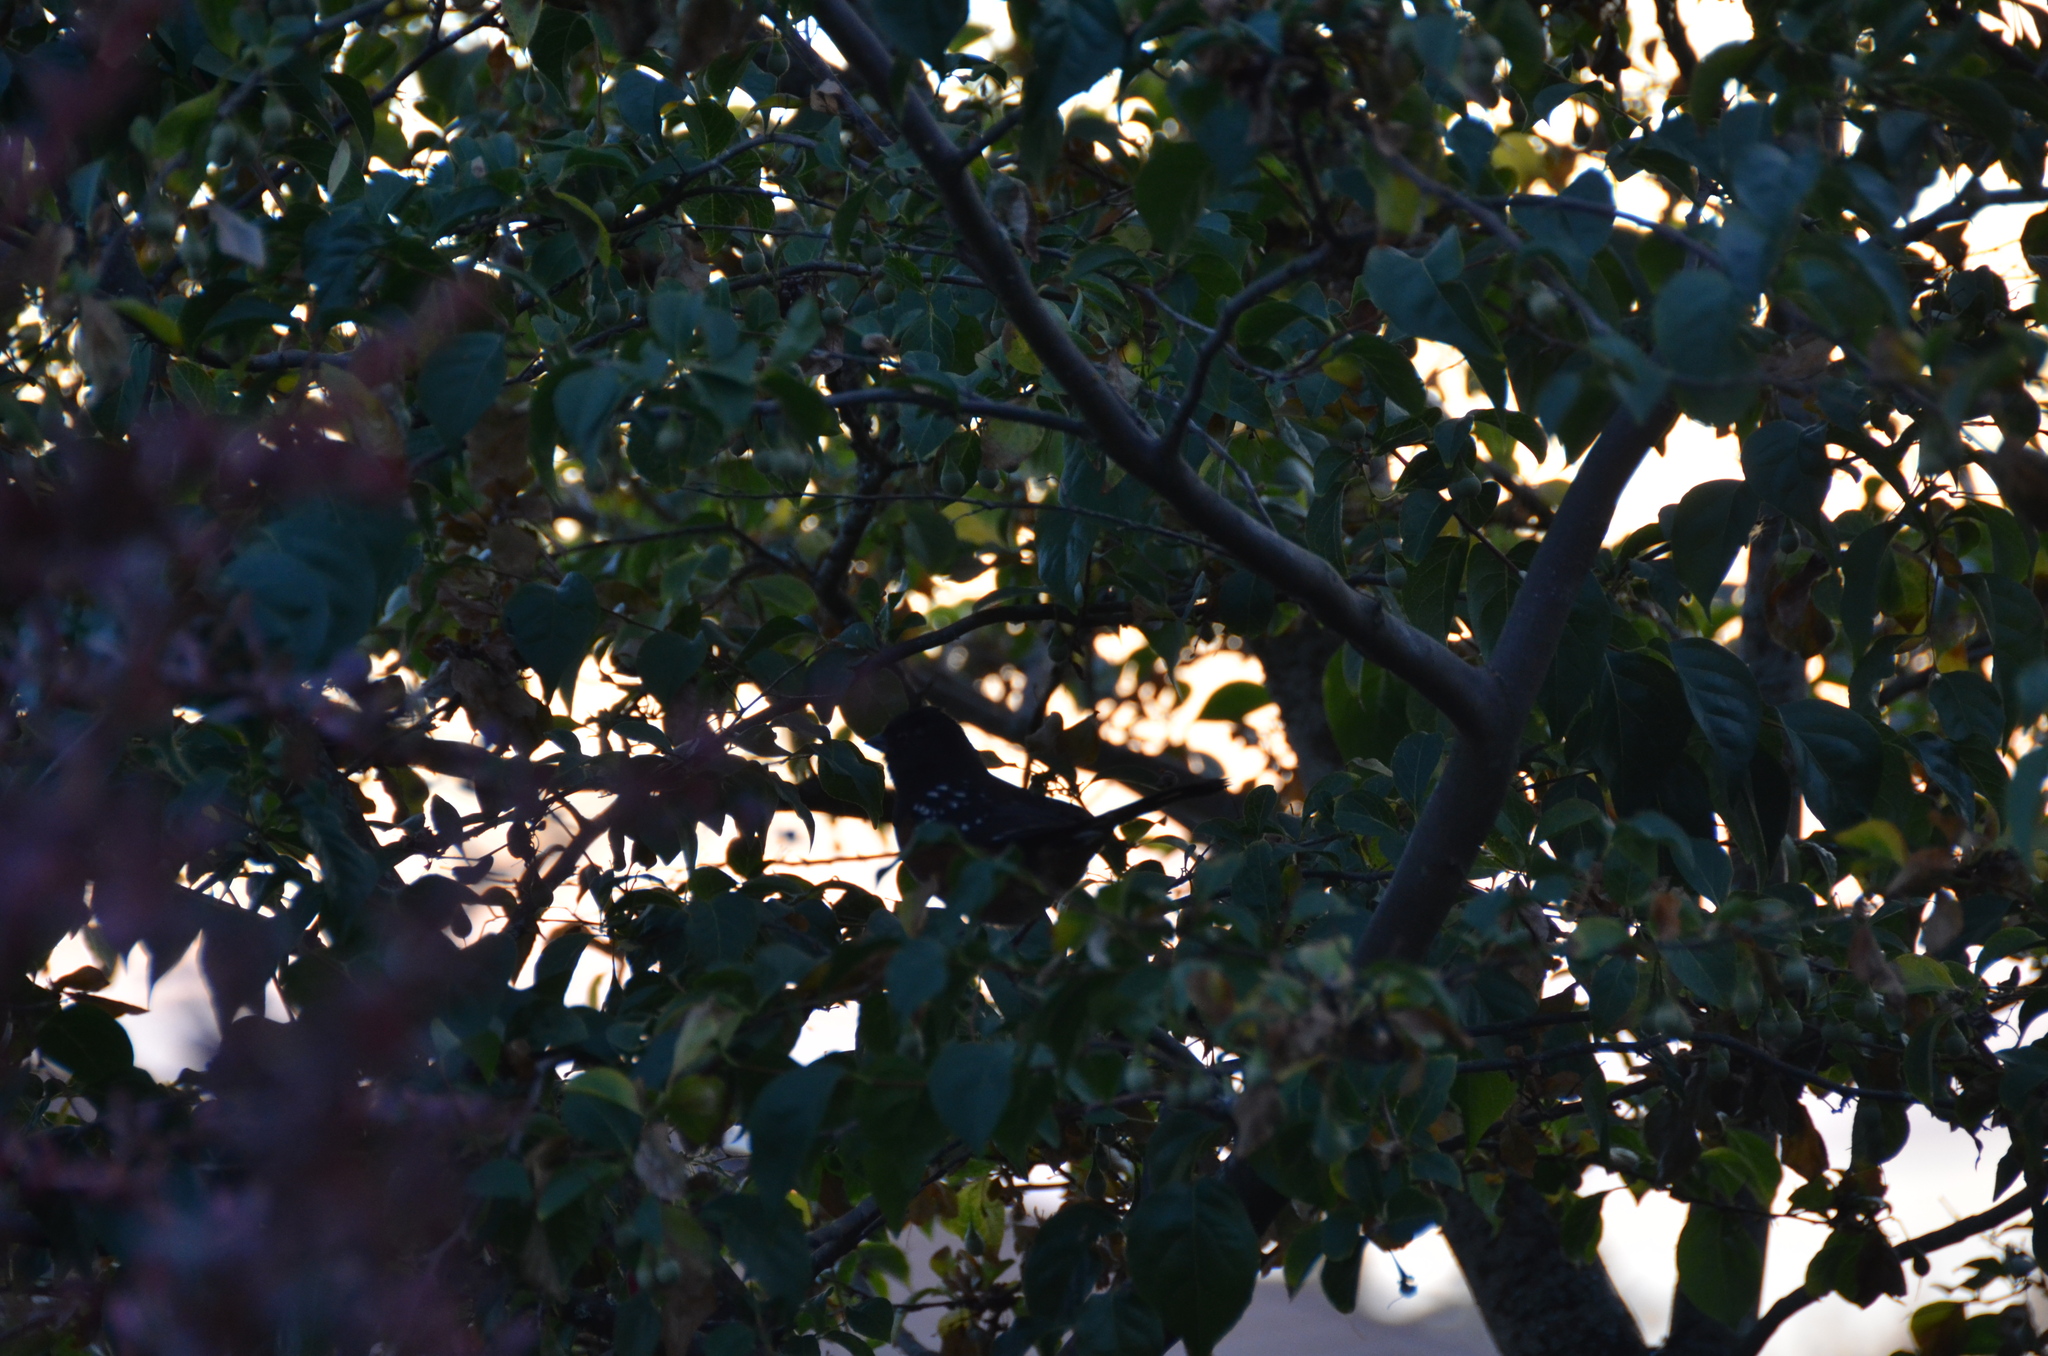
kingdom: Animalia
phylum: Chordata
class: Aves
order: Passeriformes
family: Passerellidae
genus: Pipilo
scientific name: Pipilo maculatus
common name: Spotted towhee
